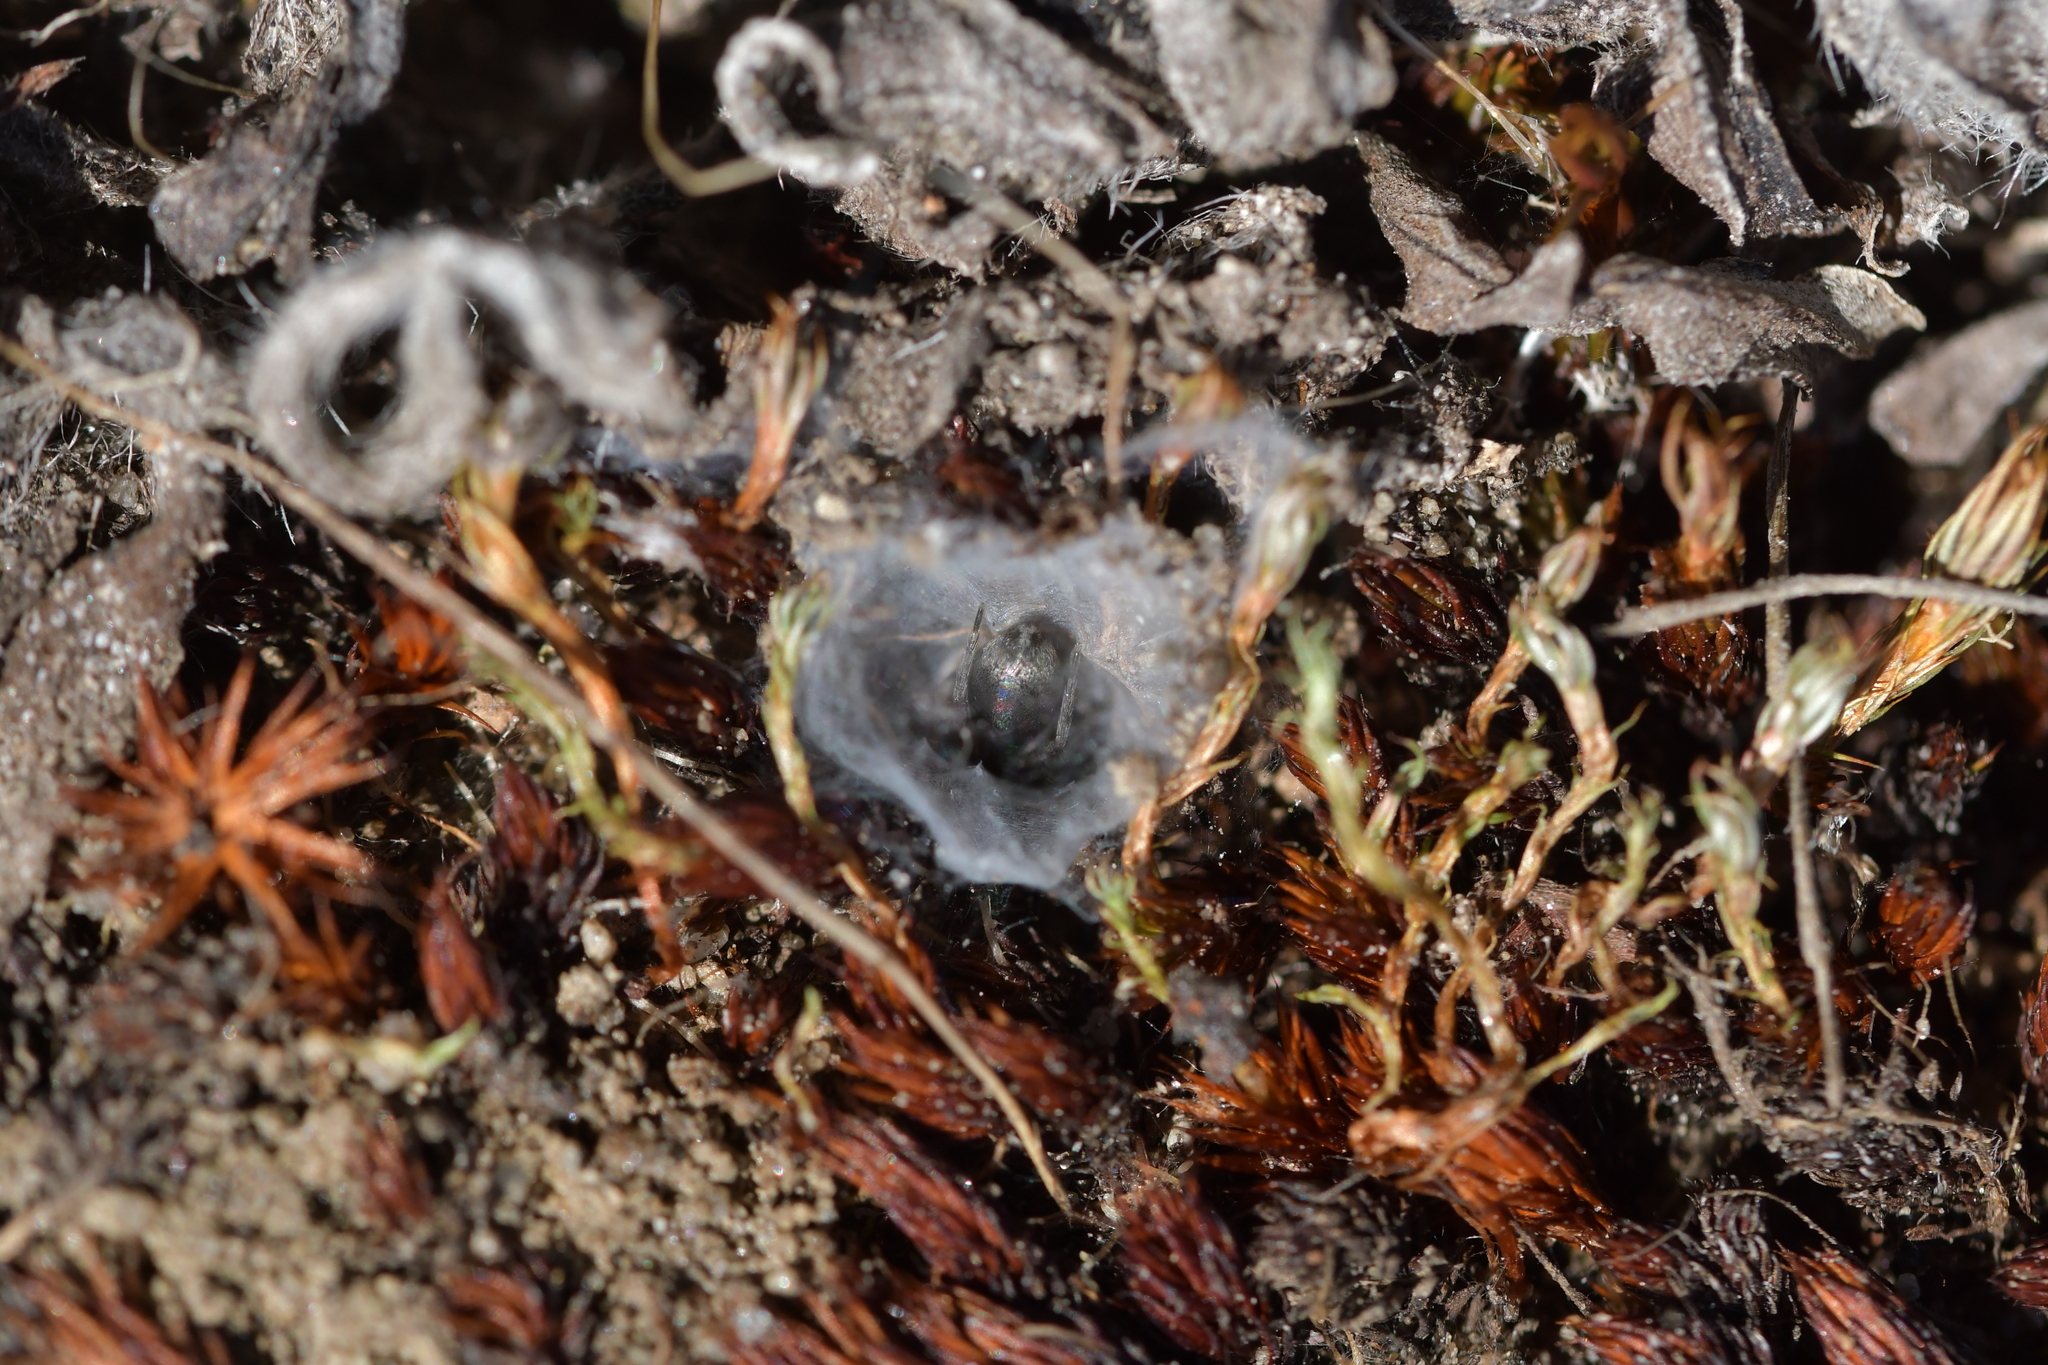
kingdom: Animalia
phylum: Arthropoda
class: Arachnida
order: Araneae
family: Gnaphosidae
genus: Anzacia
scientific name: Anzacia gemmea
